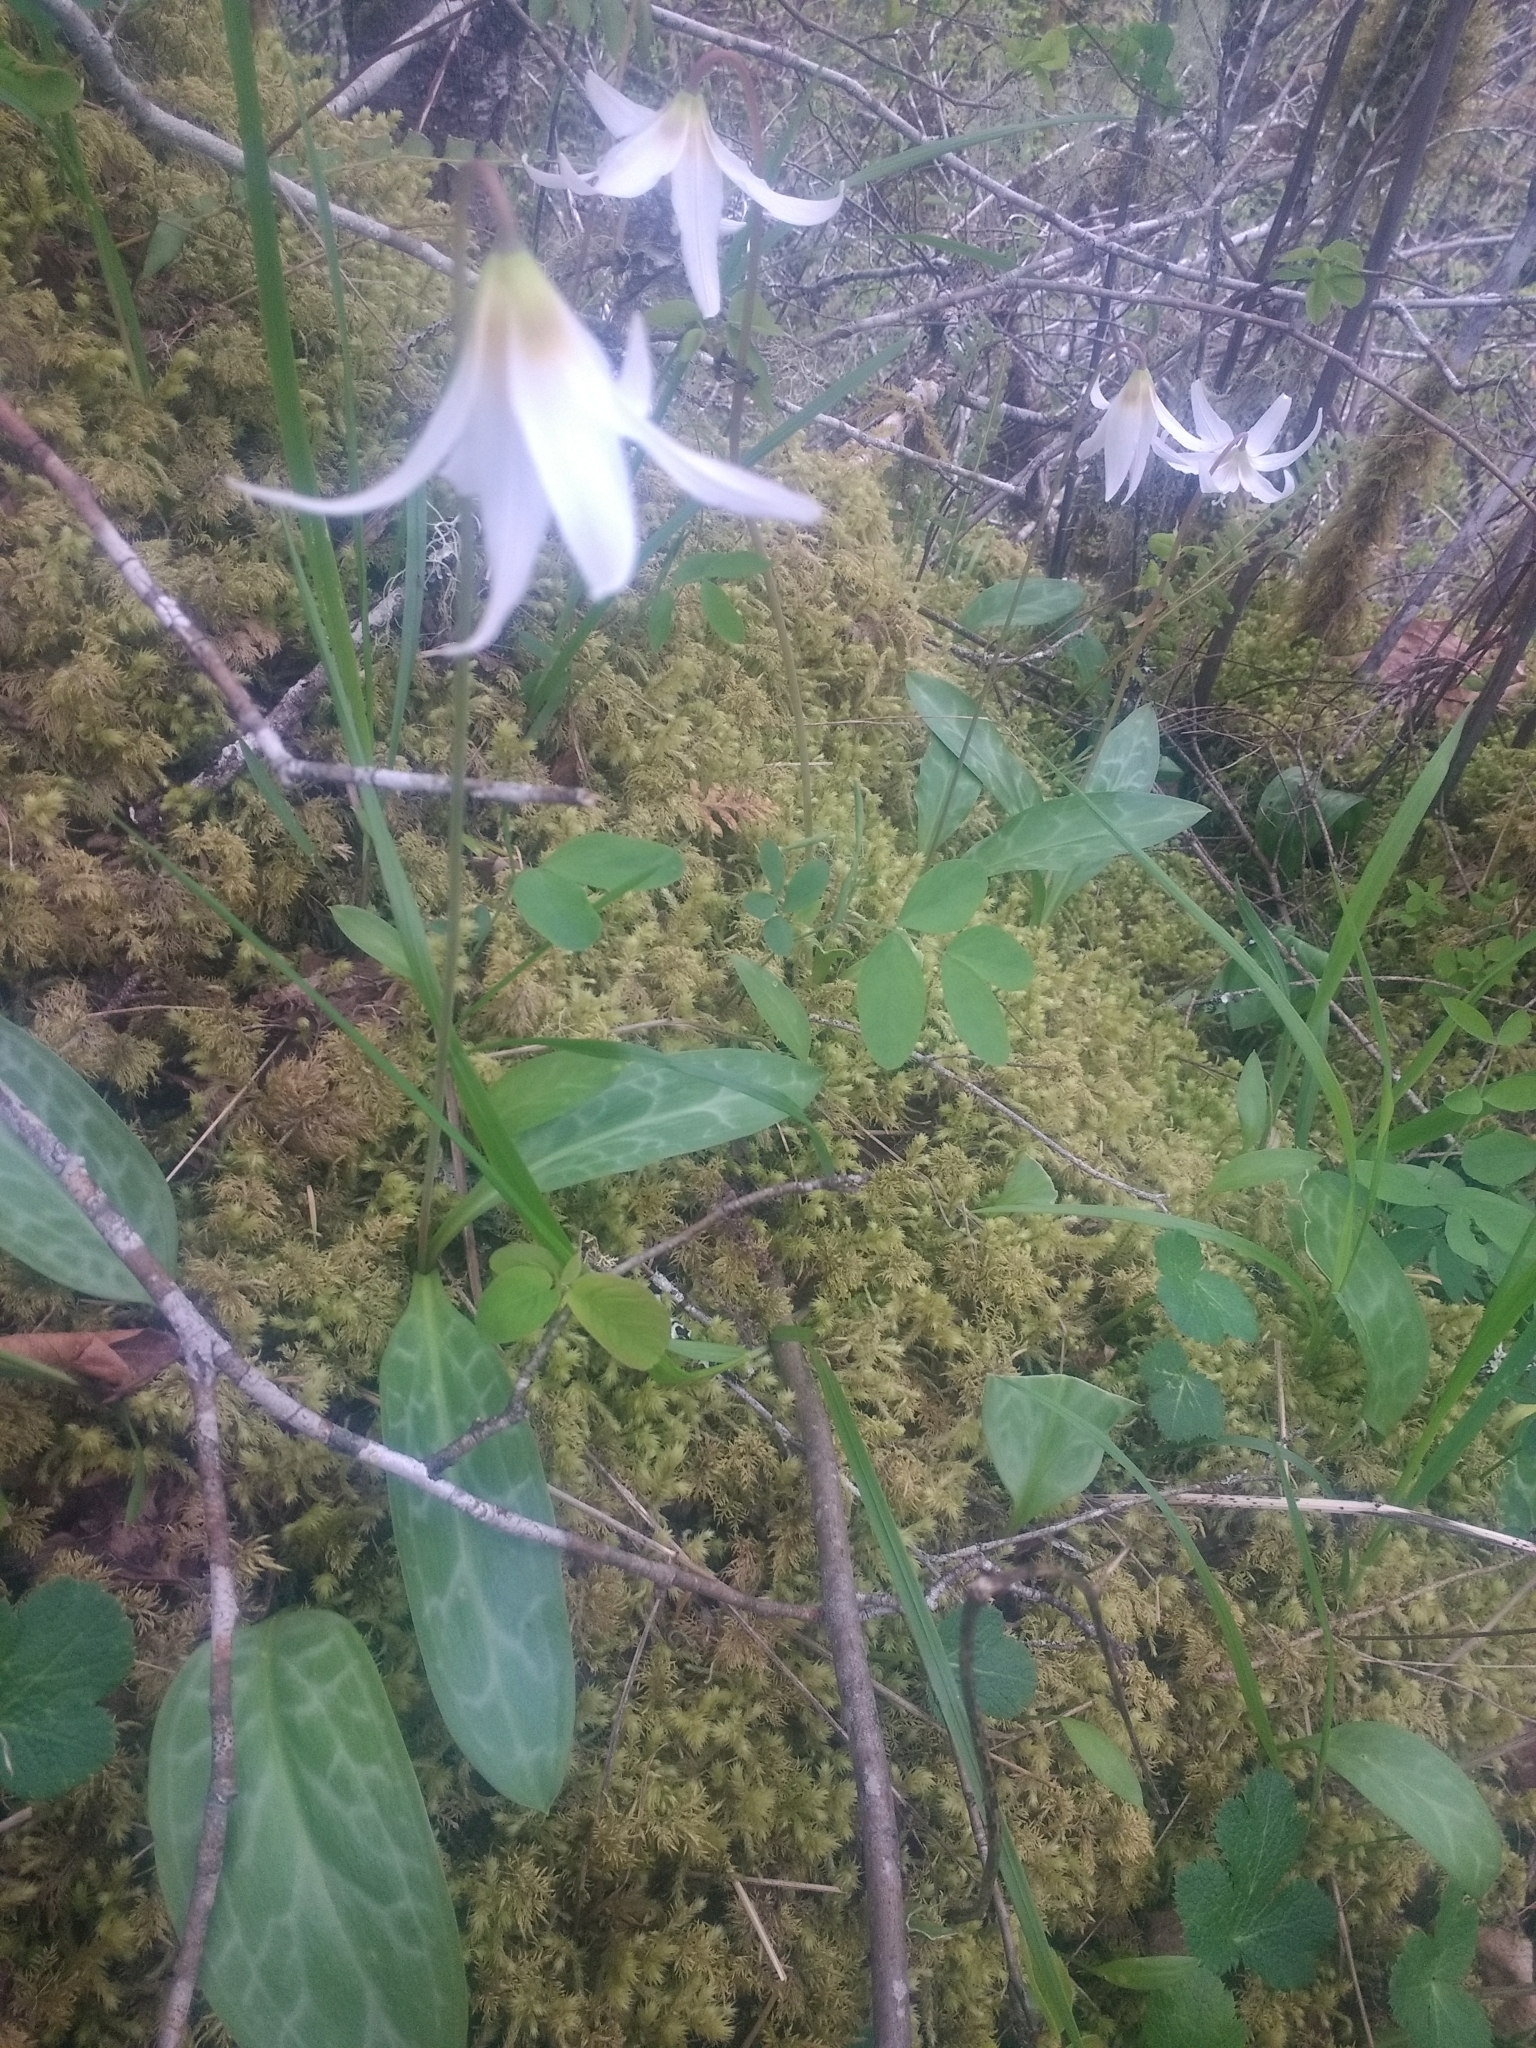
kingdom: Plantae
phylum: Tracheophyta
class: Liliopsida
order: Liliales
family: Liliaceae
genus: Erythronium
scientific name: Erythronium oregonum
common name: Giant adder's-tongue
